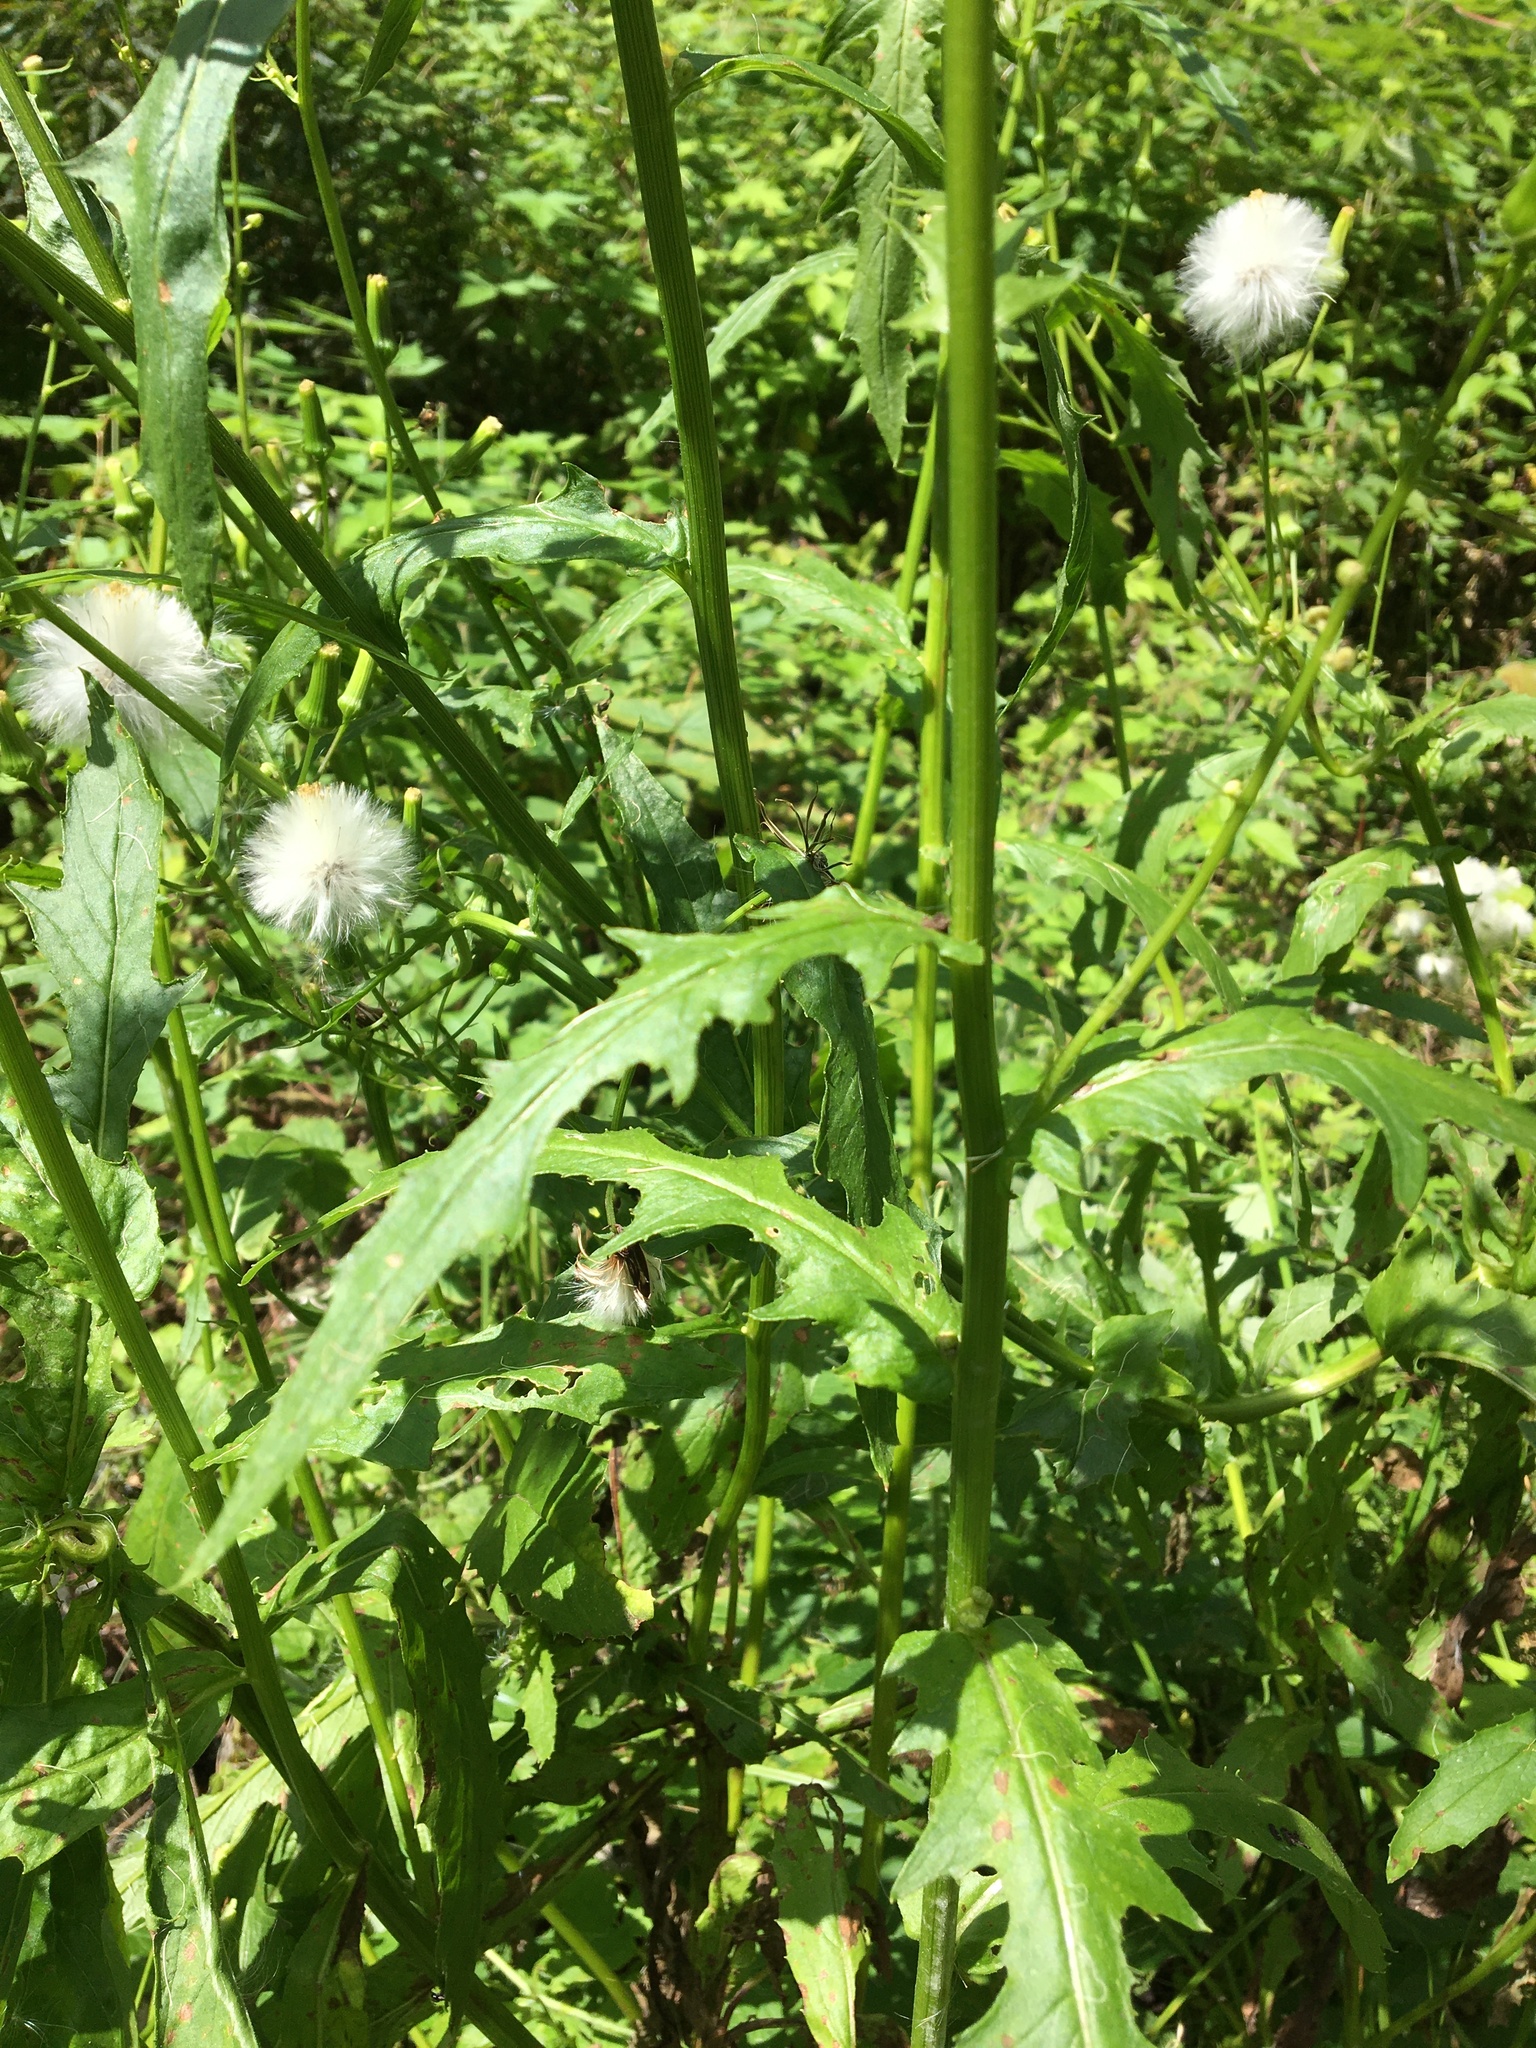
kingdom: Plantae
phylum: Tracheophyta
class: Magnoliopsida
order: Asterales
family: Asteraceae
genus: Erechtites
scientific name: Erechtites hieraciifolius
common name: American burnweed
